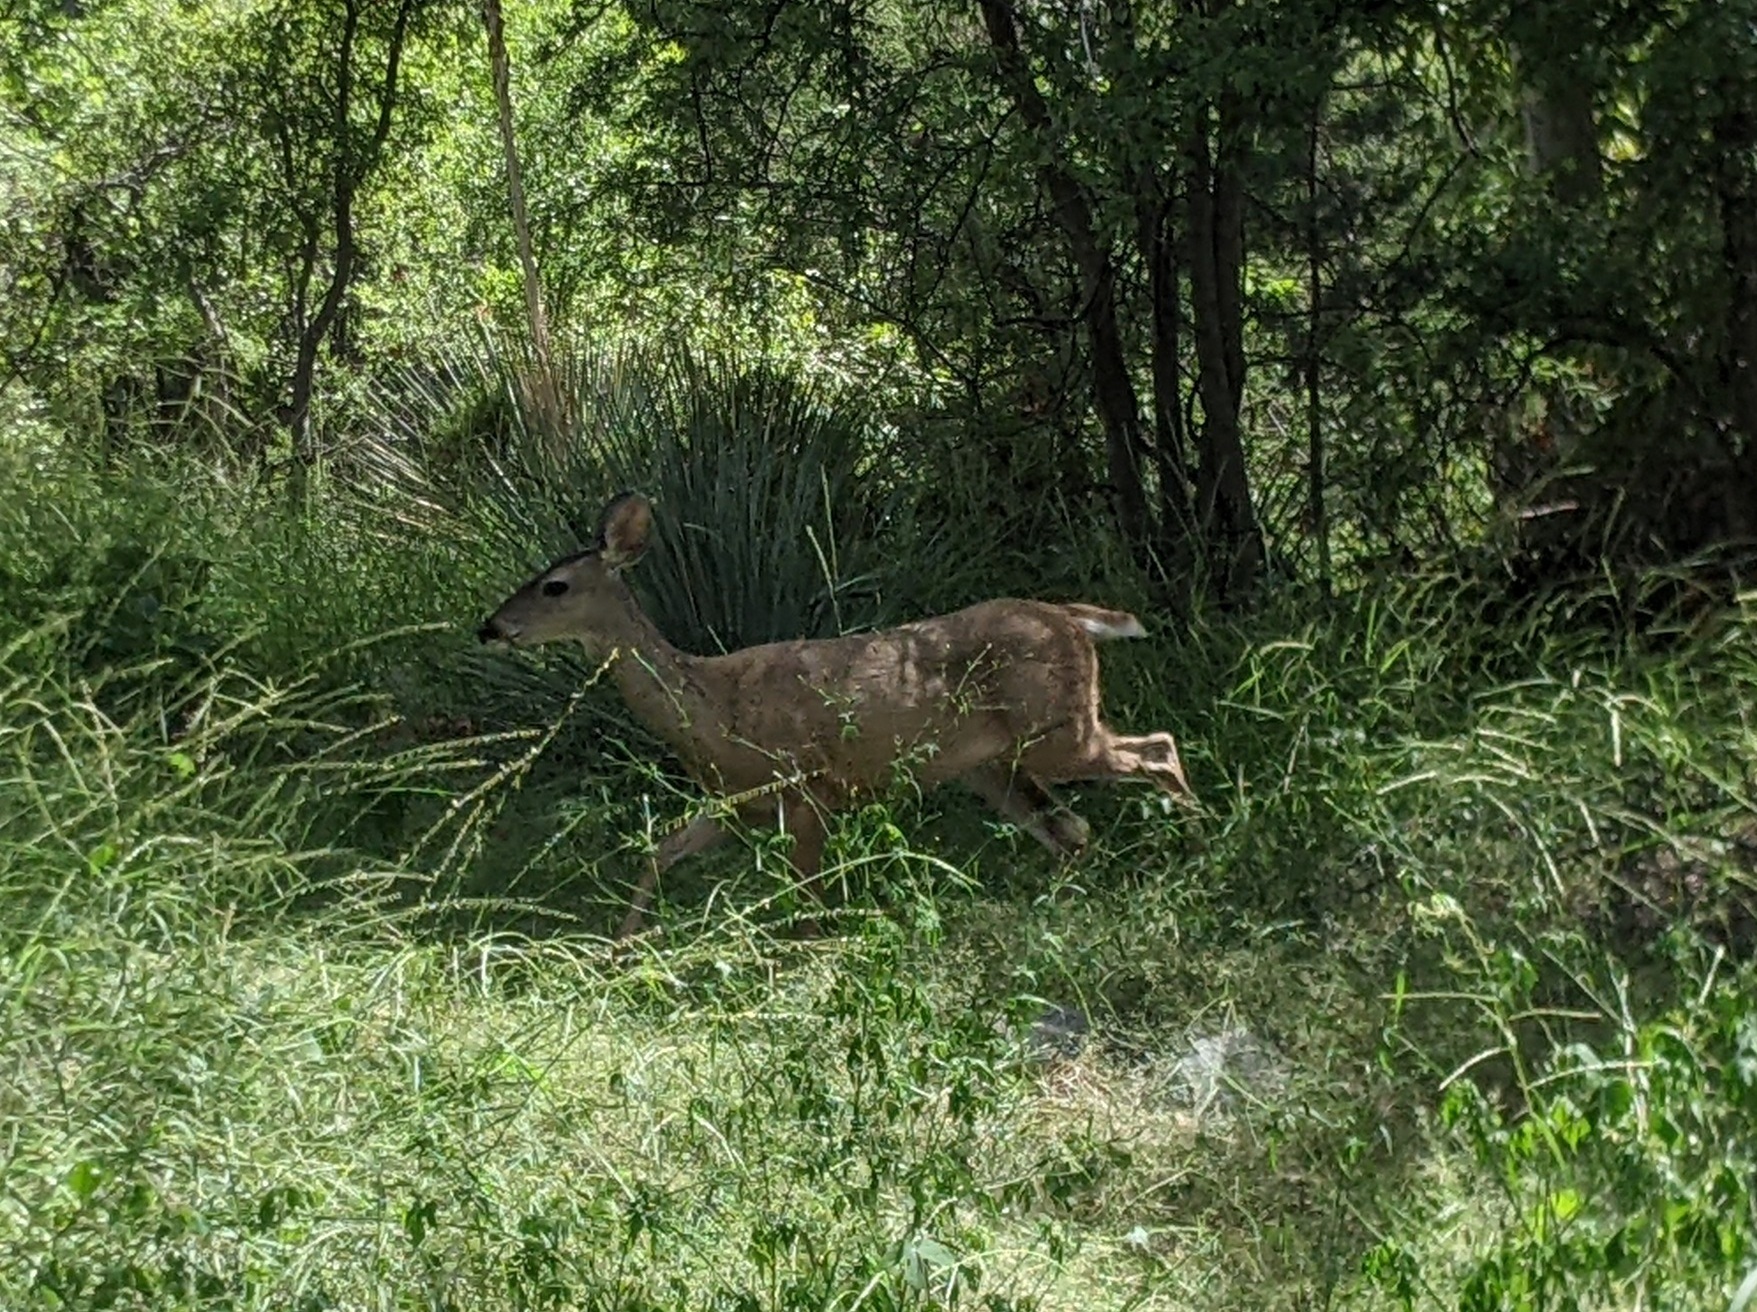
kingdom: Animalia
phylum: Chordata
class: Mammalia
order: Artiodactyla
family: Cervidae
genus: Odocoileus
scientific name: Odocoileus virginianus
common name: White-tailed deer
